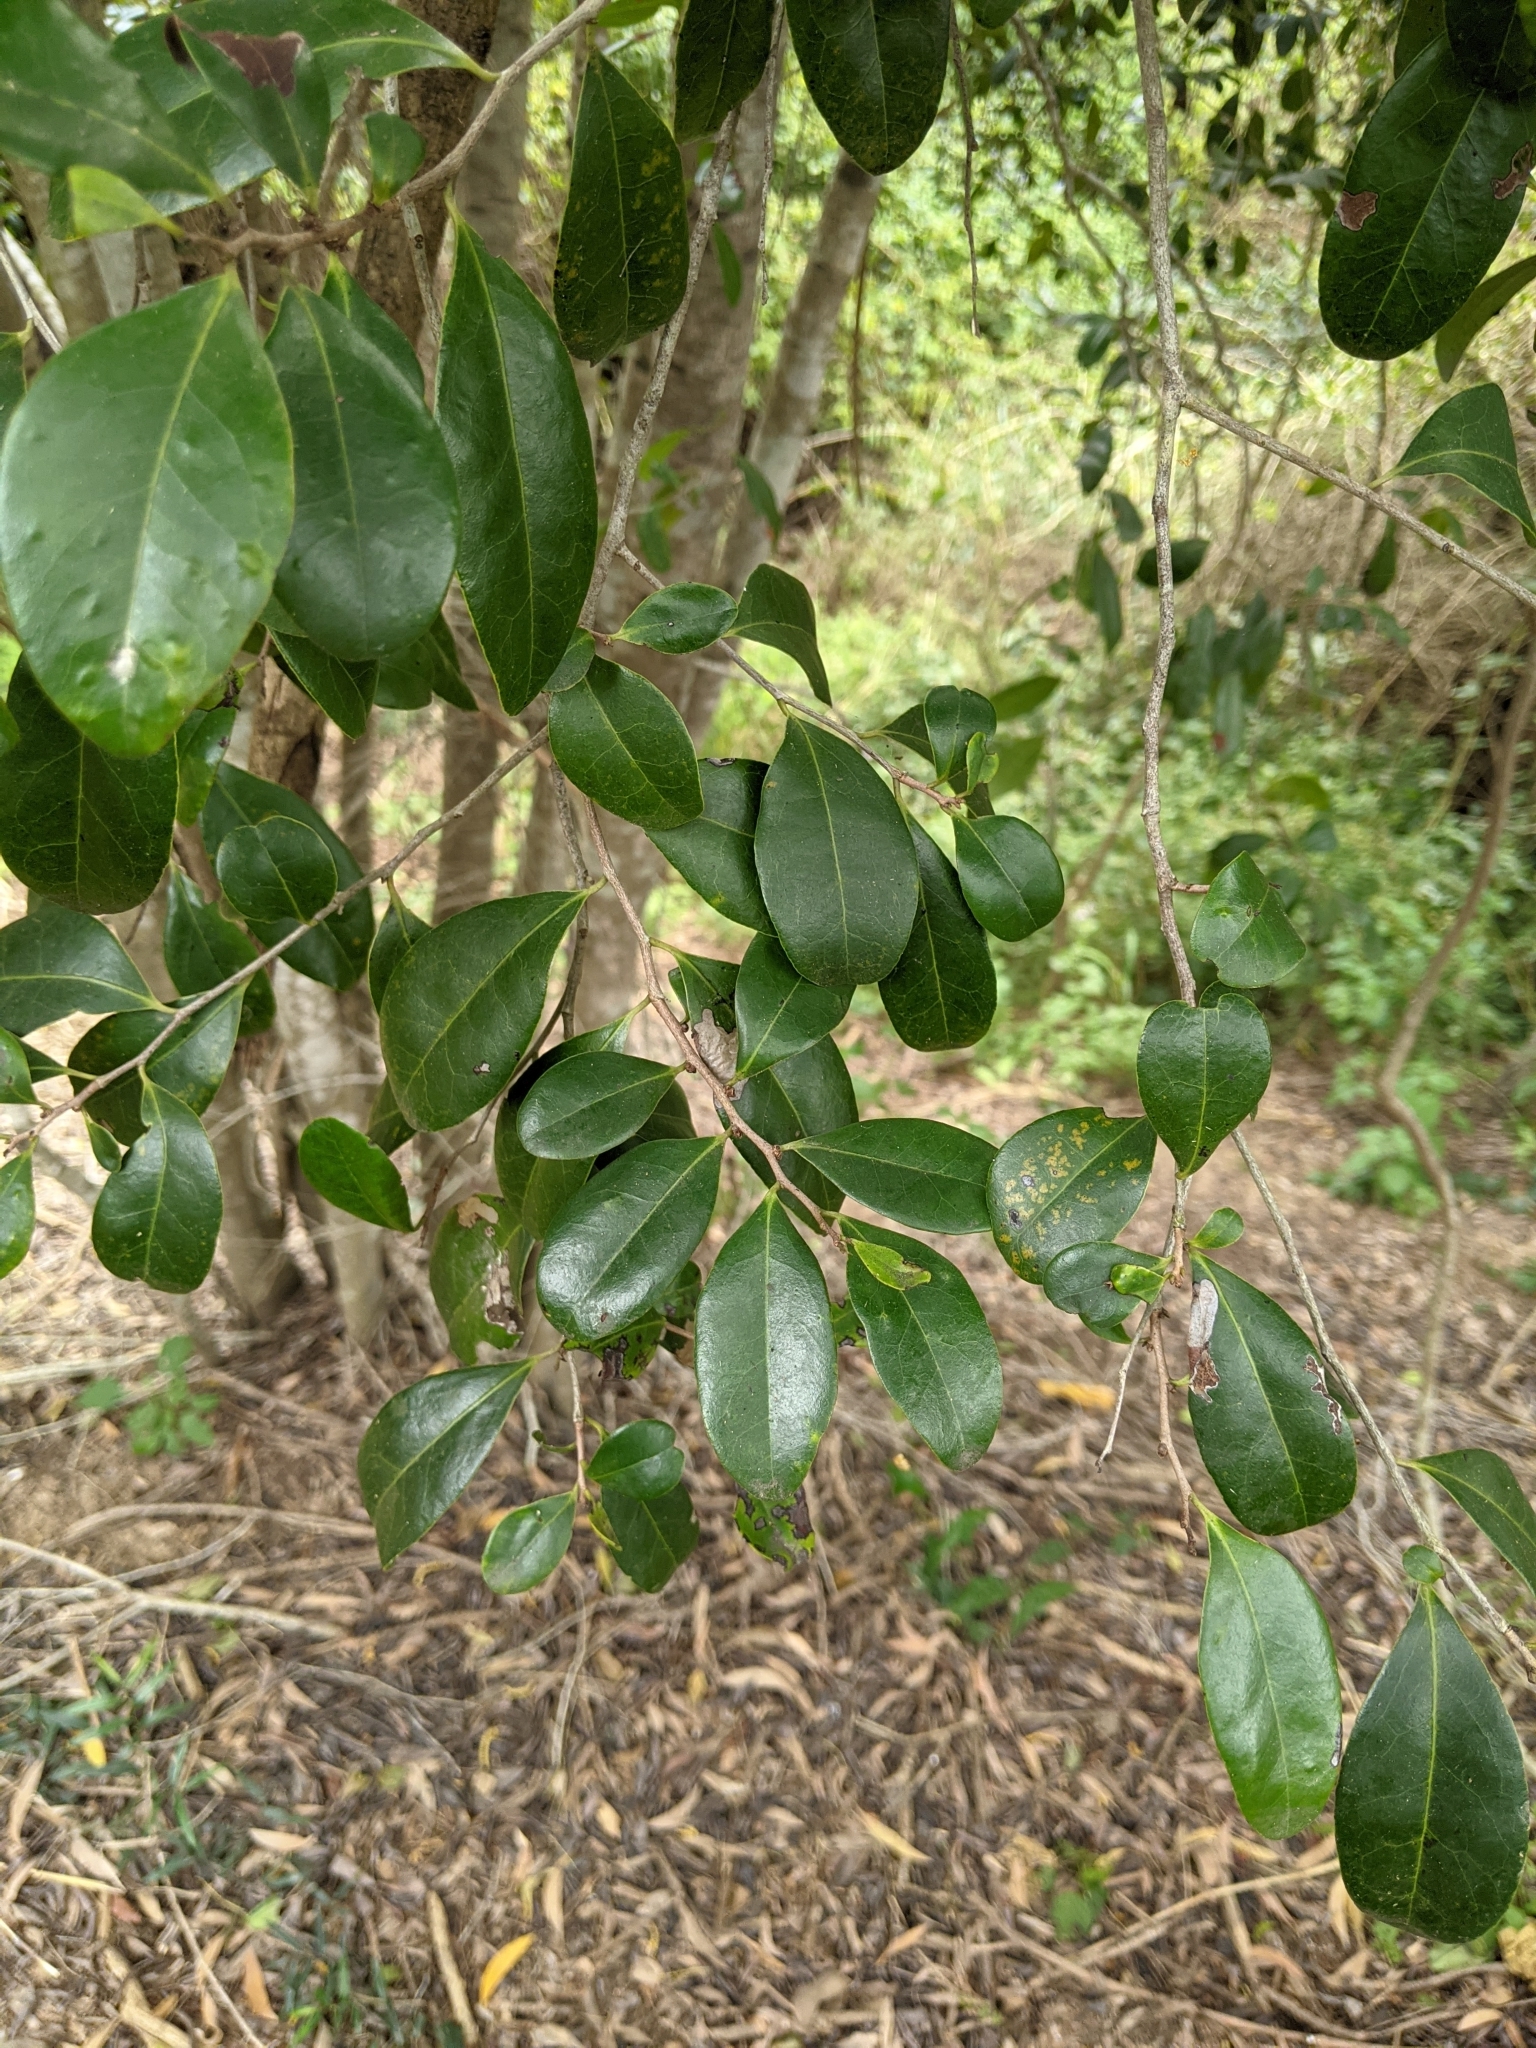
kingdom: Plantae
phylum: Tracheophyta
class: Magnoliopsida
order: Ericales
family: Ebenaceae
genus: Diospyros
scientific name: Diospyros geminata
